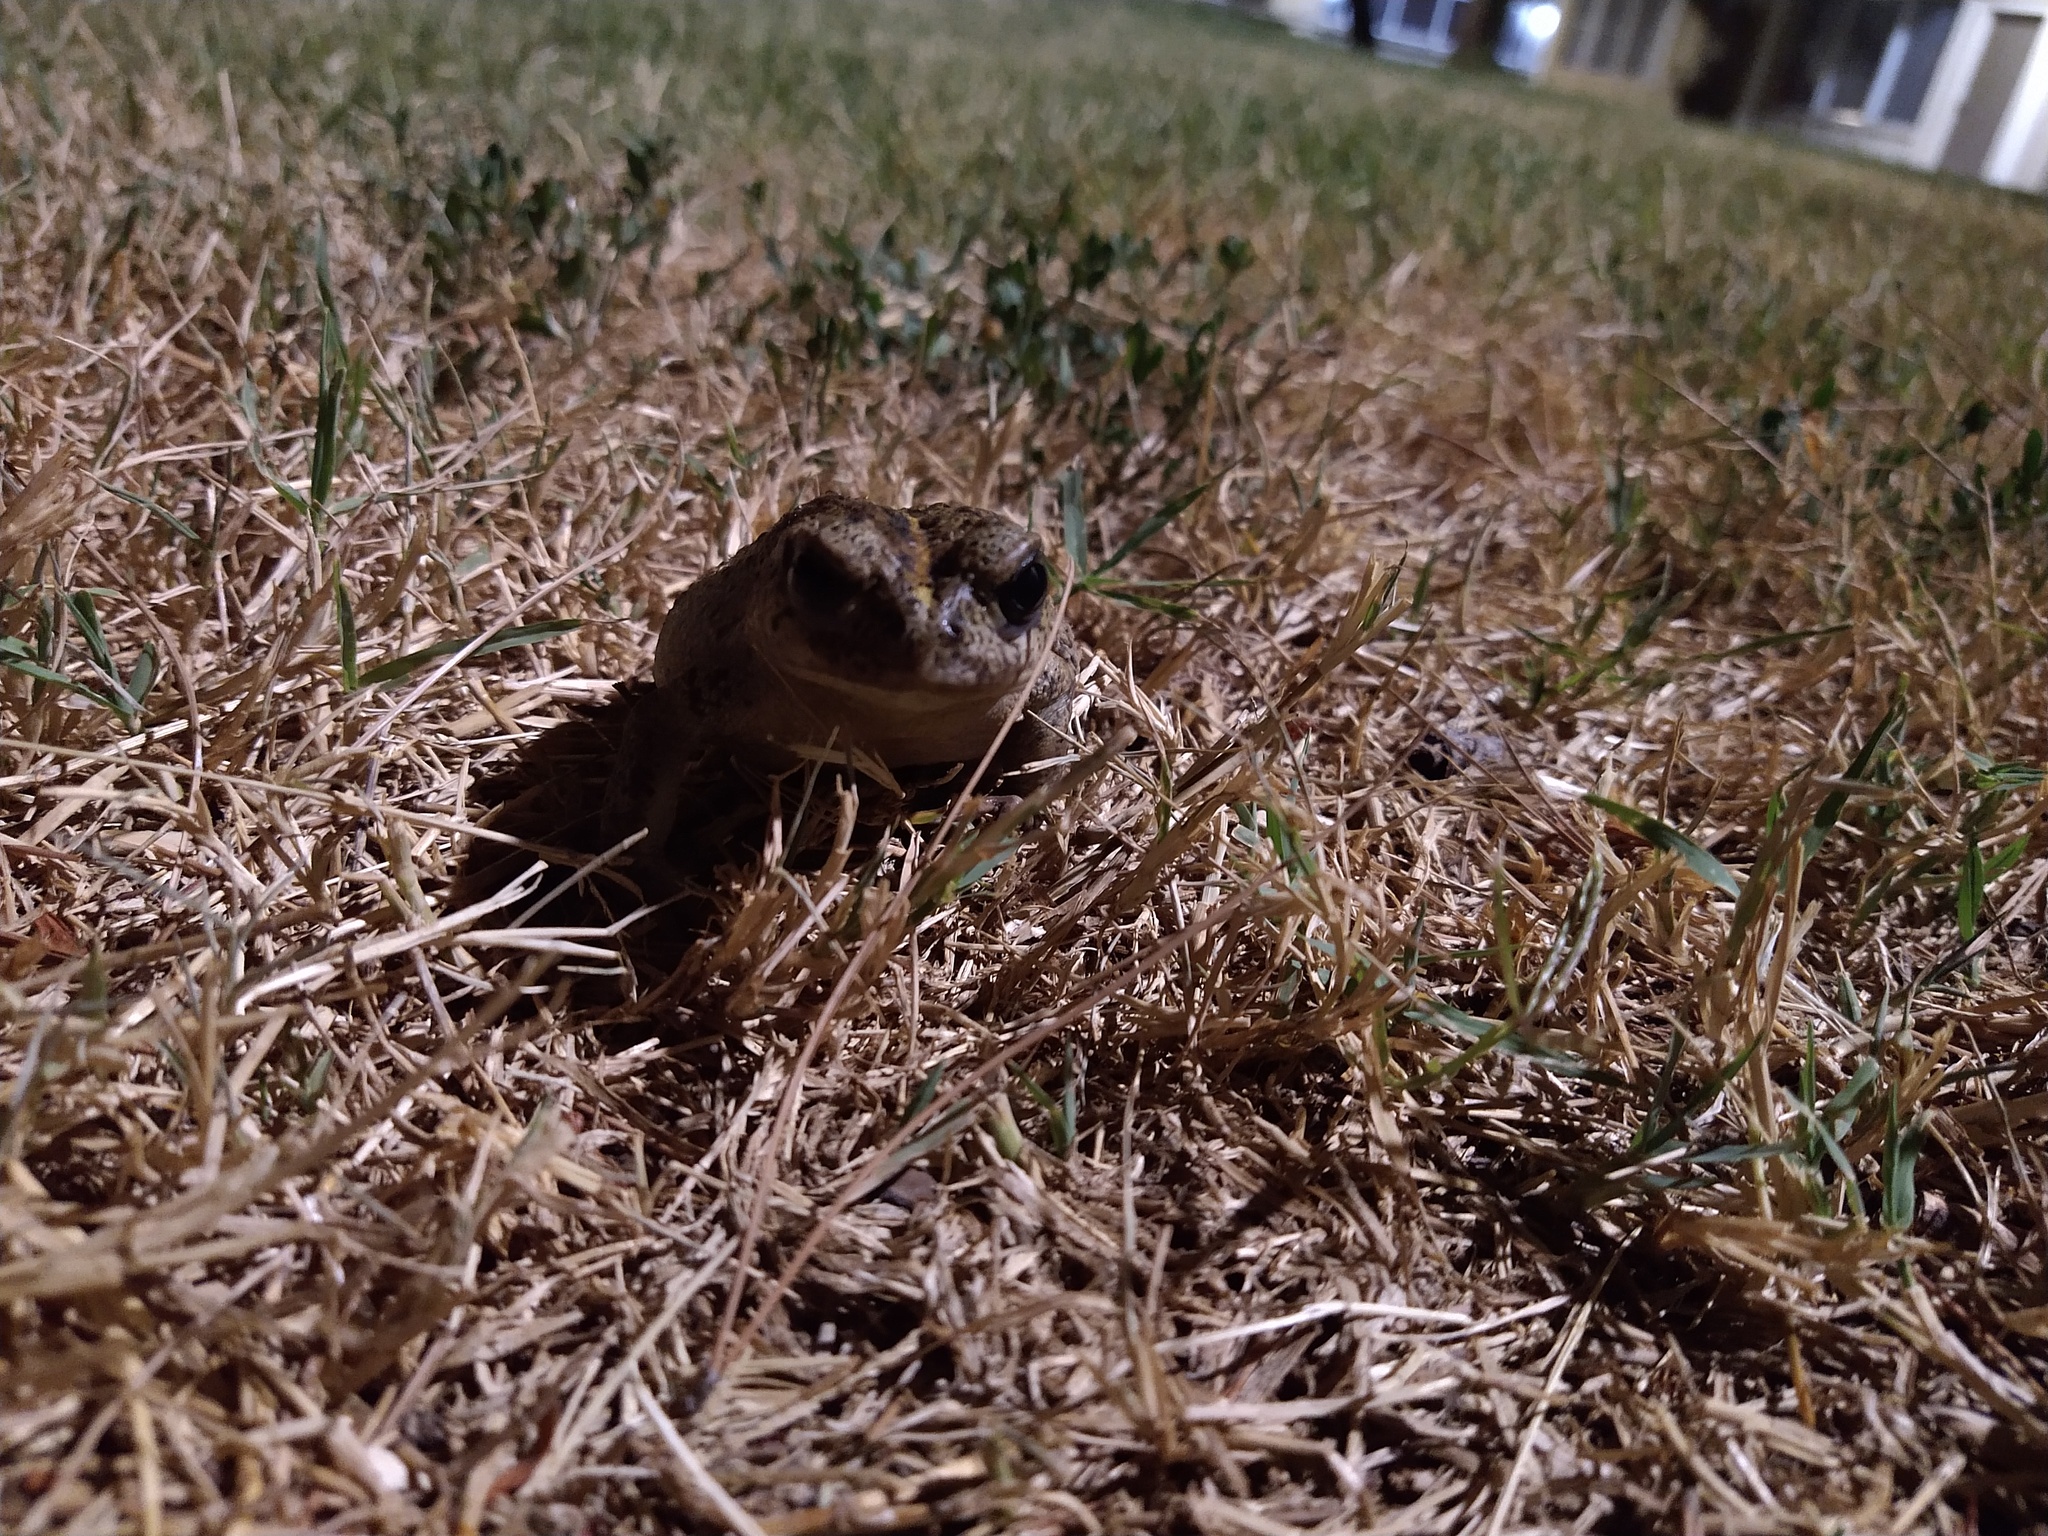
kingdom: Animalia
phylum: Chordata
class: Amphibia
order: Anura
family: Bufonidae
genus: Anaxyrus
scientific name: Anaxyrus boreas
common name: Western toad
